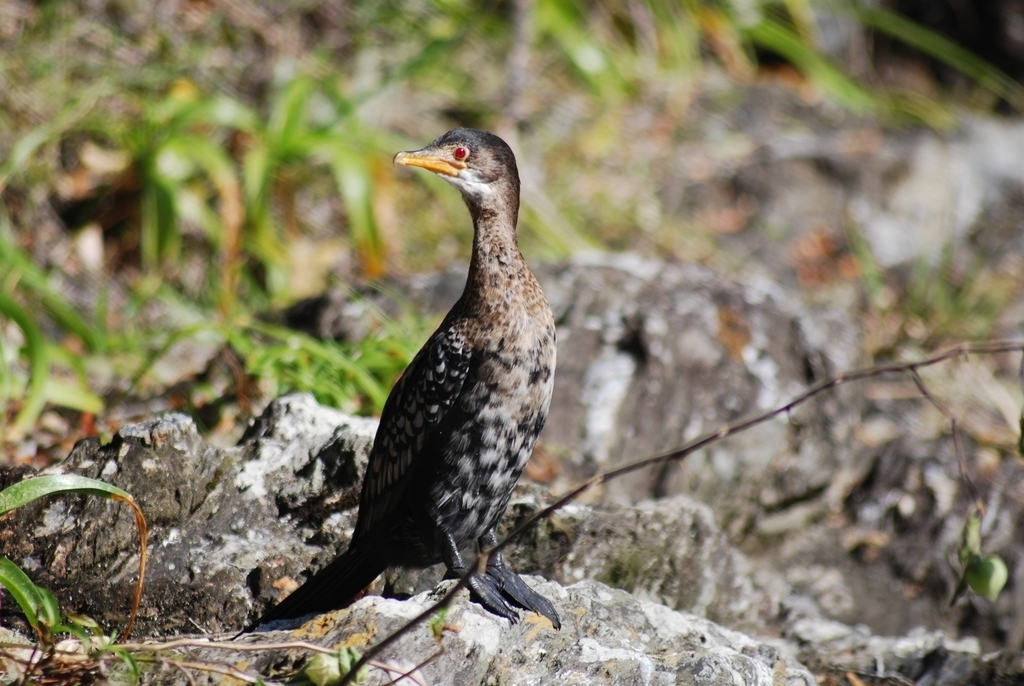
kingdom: Animalia
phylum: Chordata
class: Aves
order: Suliformes
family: Phalacrocoracidae
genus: Microcarbo
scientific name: Microcarbo africanus
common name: Long-tailed cormorant
